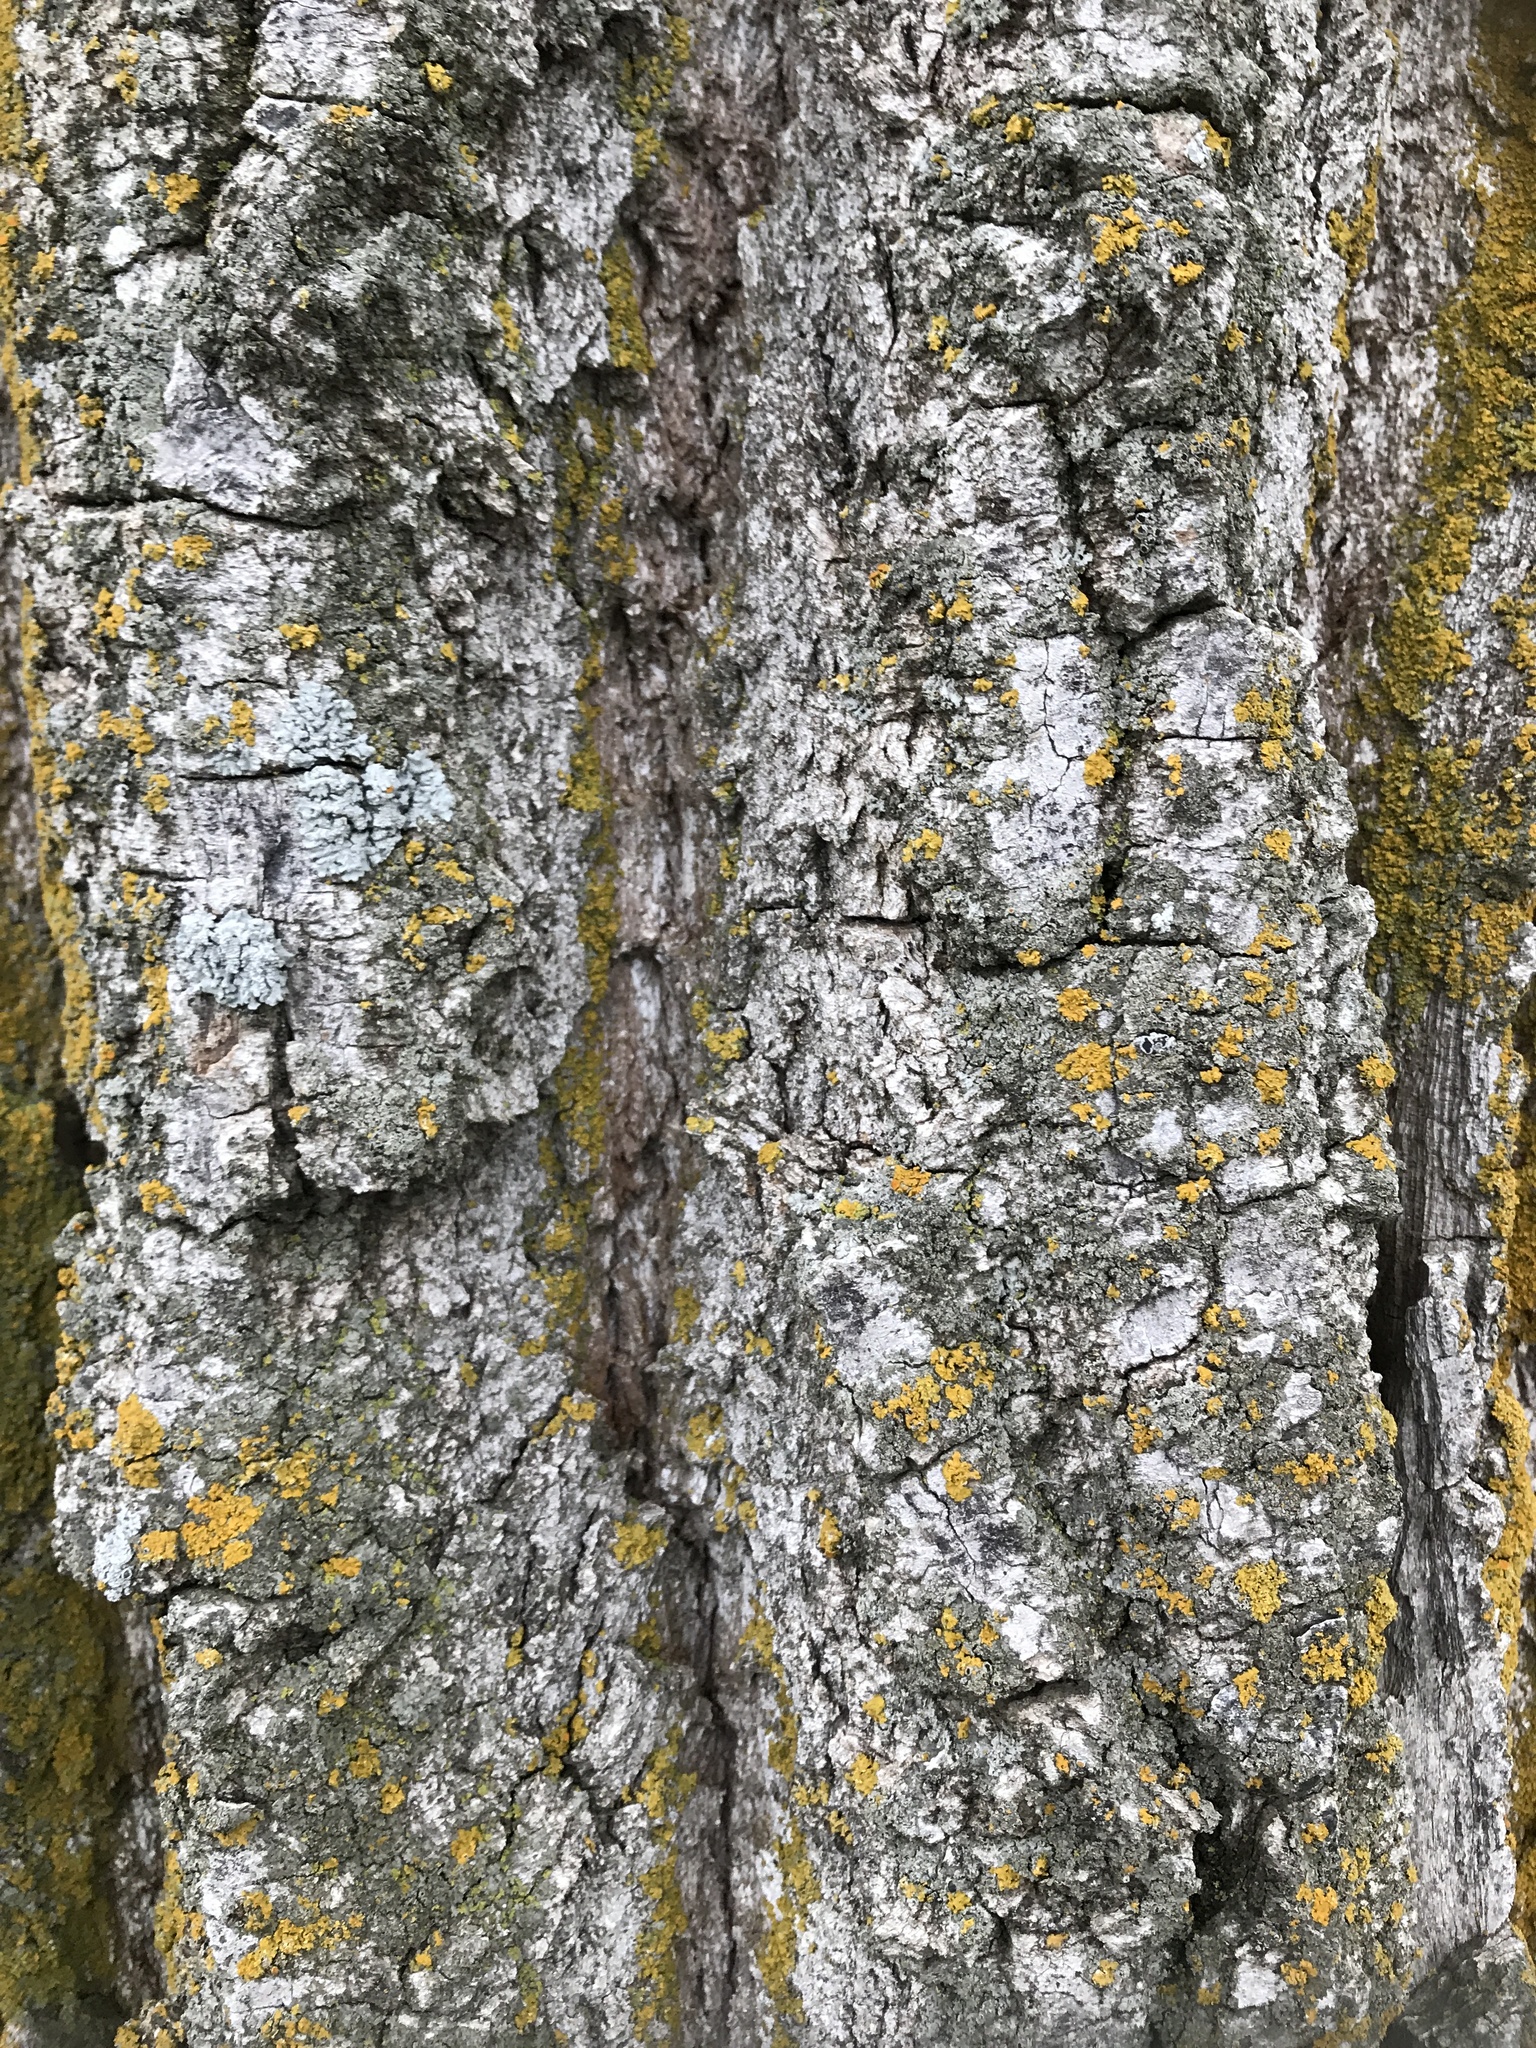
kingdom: Plantae
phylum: Tracheophyta
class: Magnoliopsida
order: Malpighiales
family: Salicaceae
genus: Populus
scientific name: Populus deltoides
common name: Eastern cottonwood
